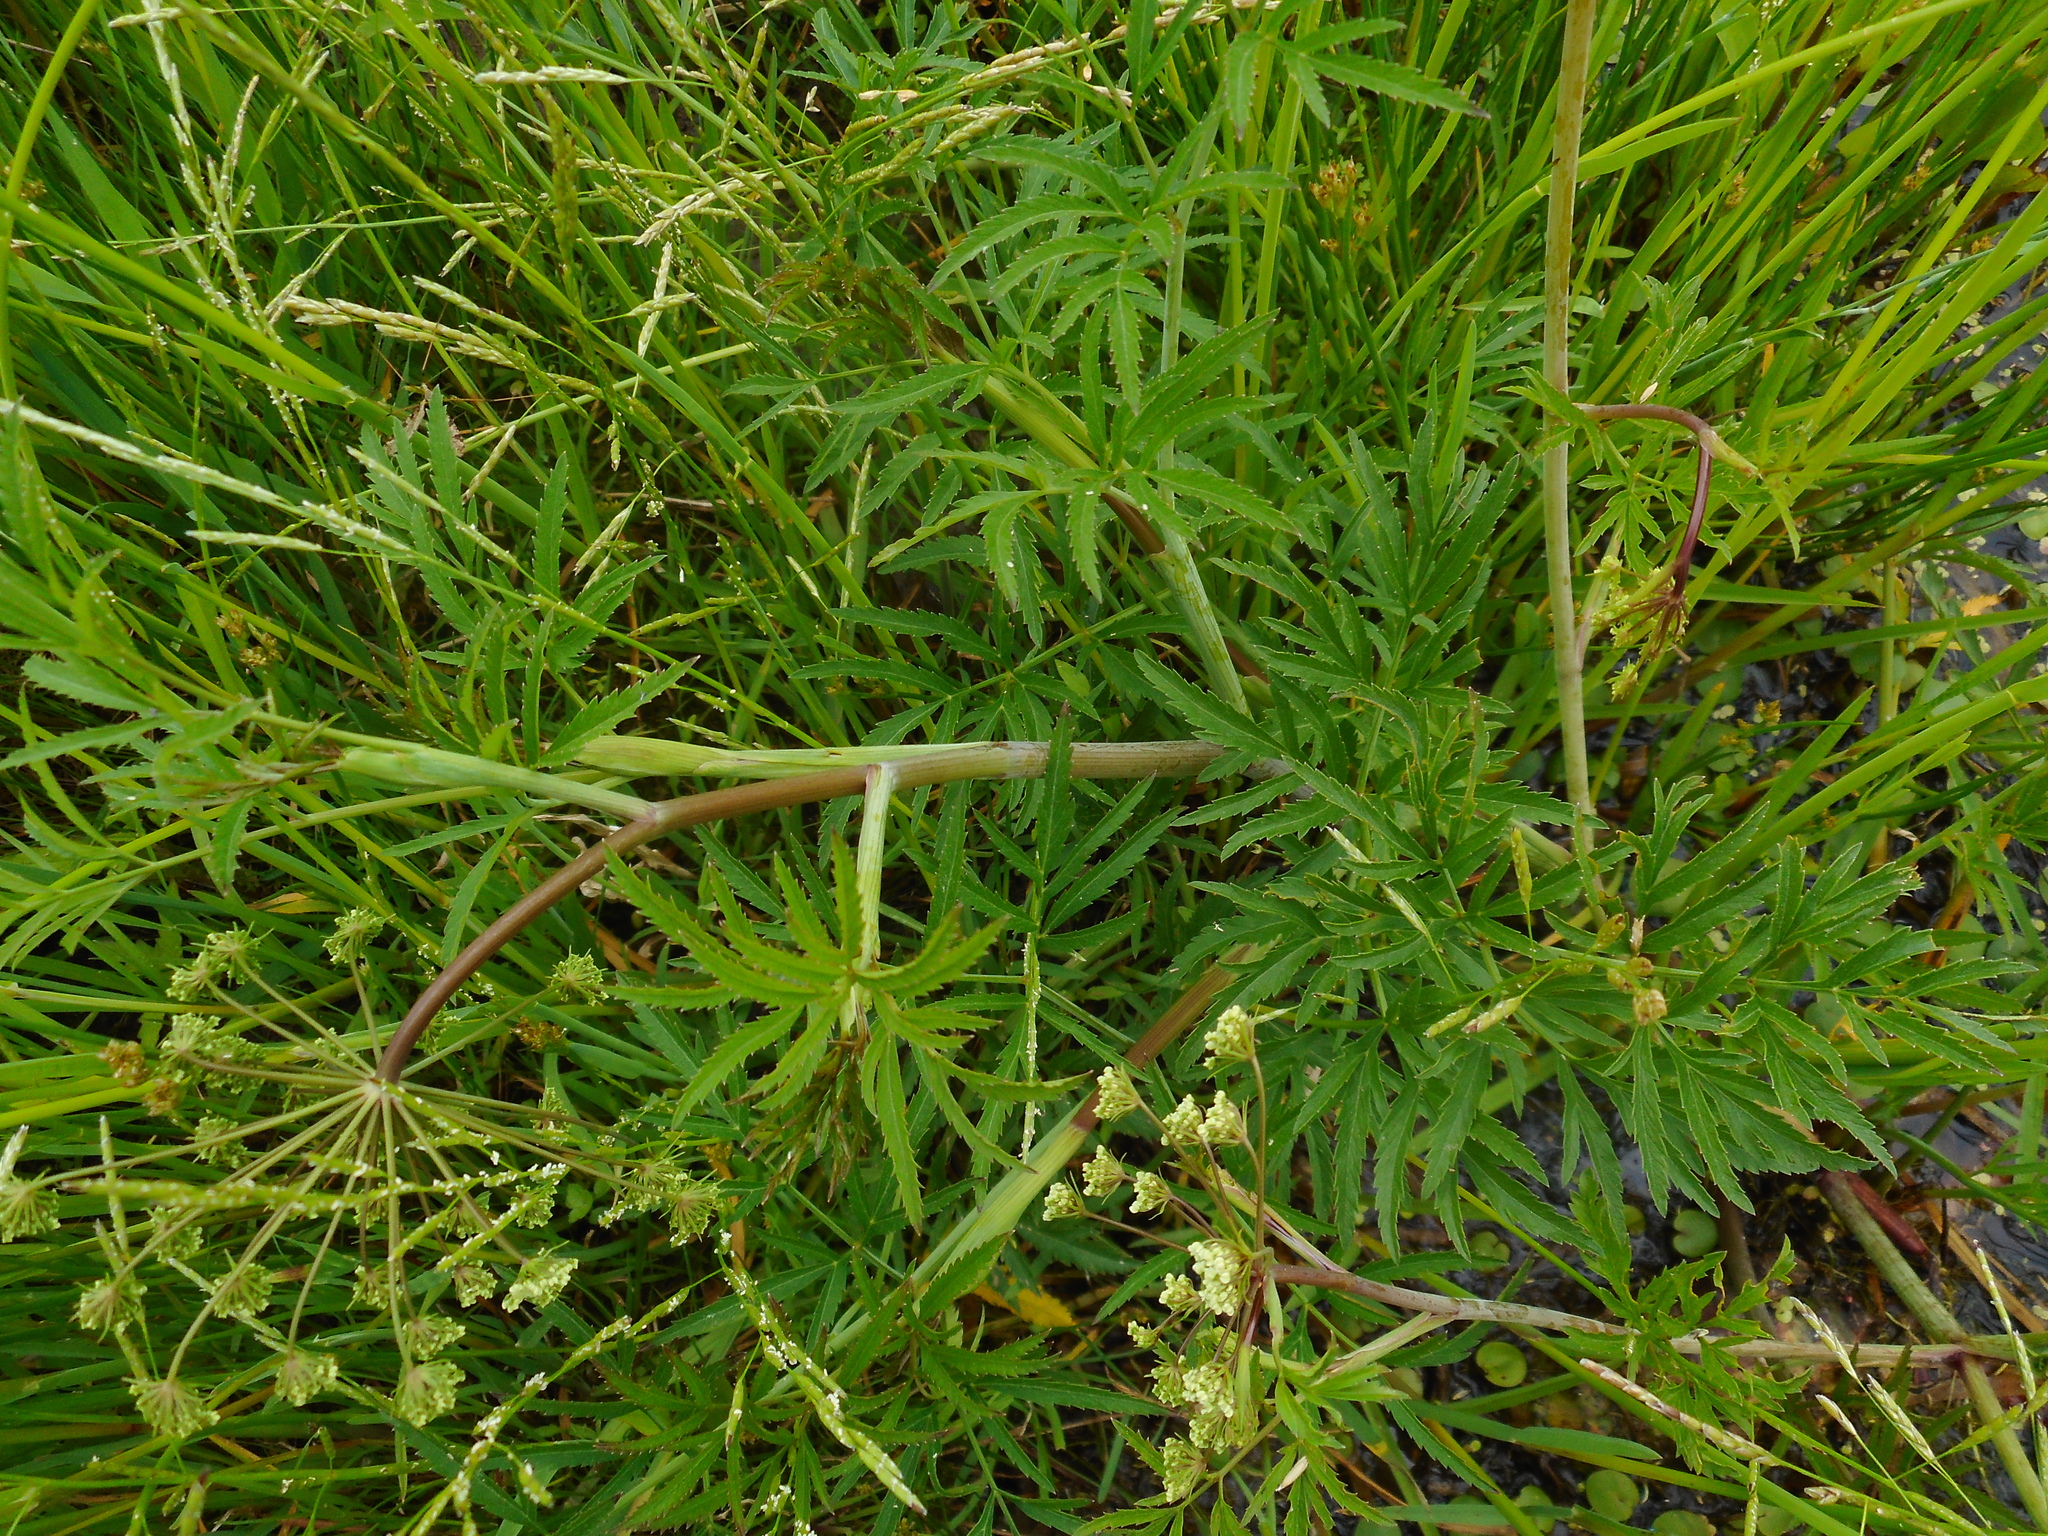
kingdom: Plantae
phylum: Tracheophyta
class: Magnoliopsida
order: Apiales
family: Apiaceae
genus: Cicuta
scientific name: Cicuta virosa
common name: Cowbane
